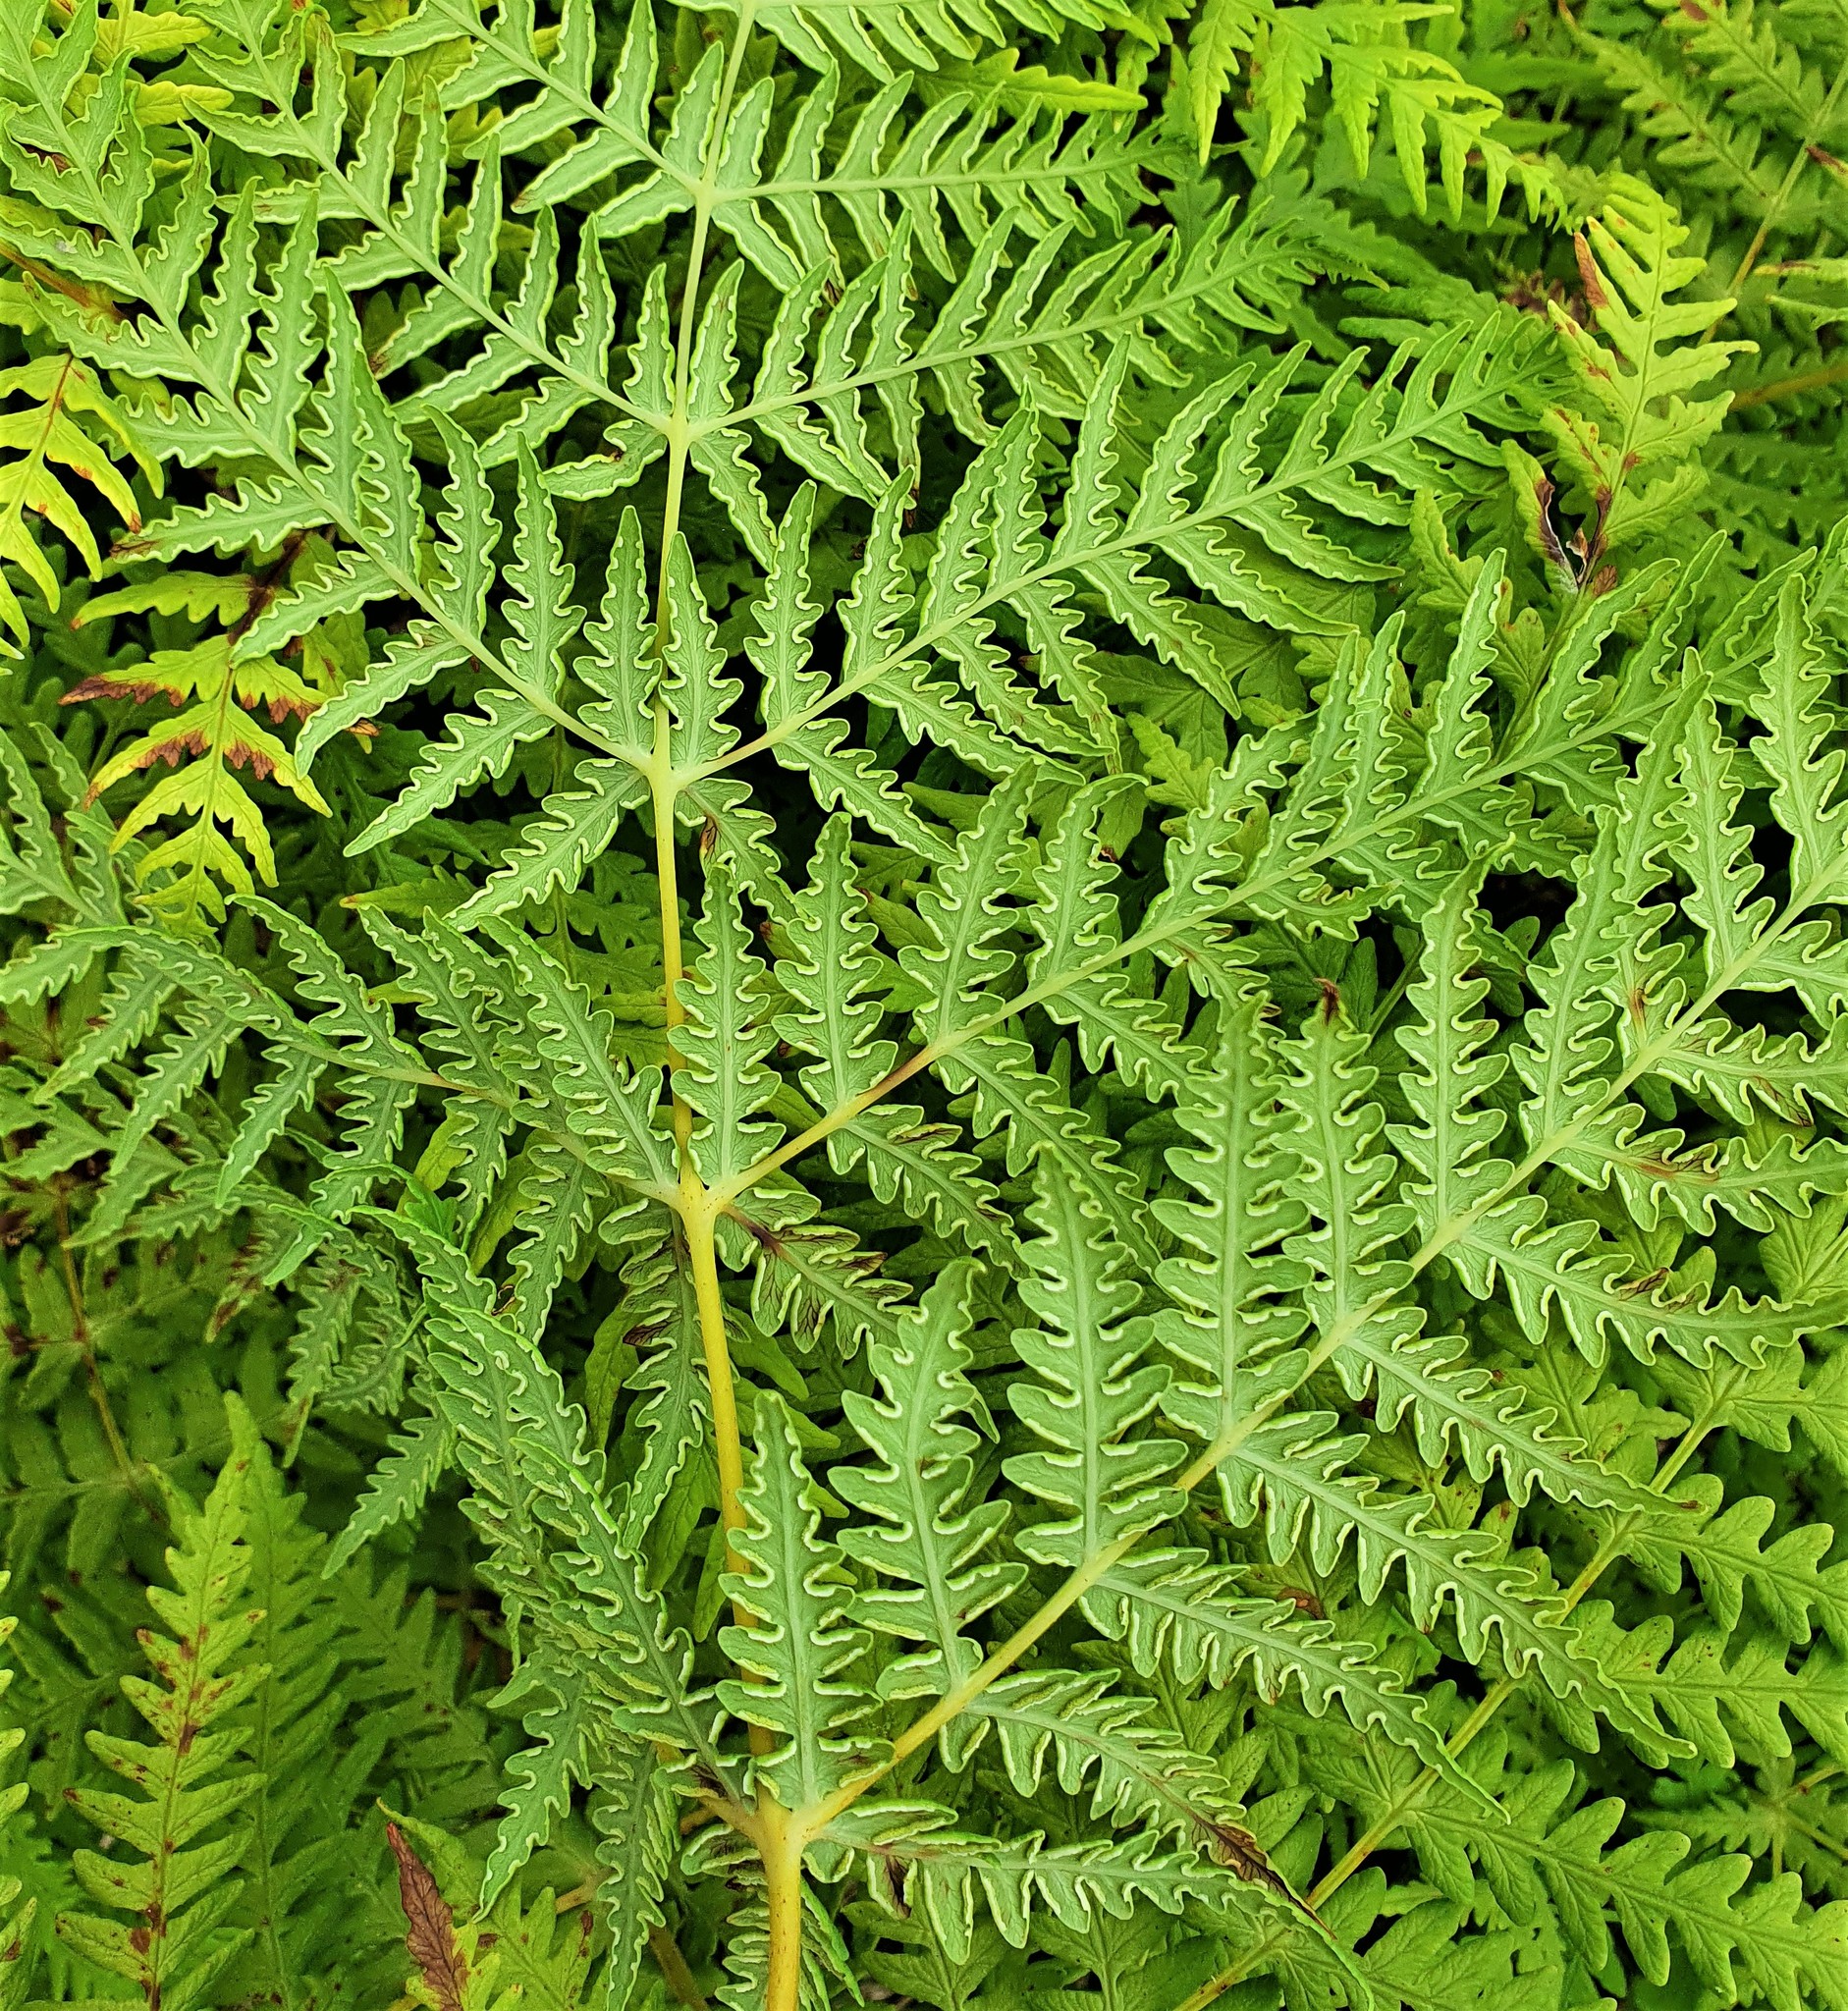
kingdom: Plantae
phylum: Tracheophyta
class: Polypodiopsida
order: Polypodiales
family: Dennstaedtiaceae
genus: Histiopteris
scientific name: Histiopteris incisa
